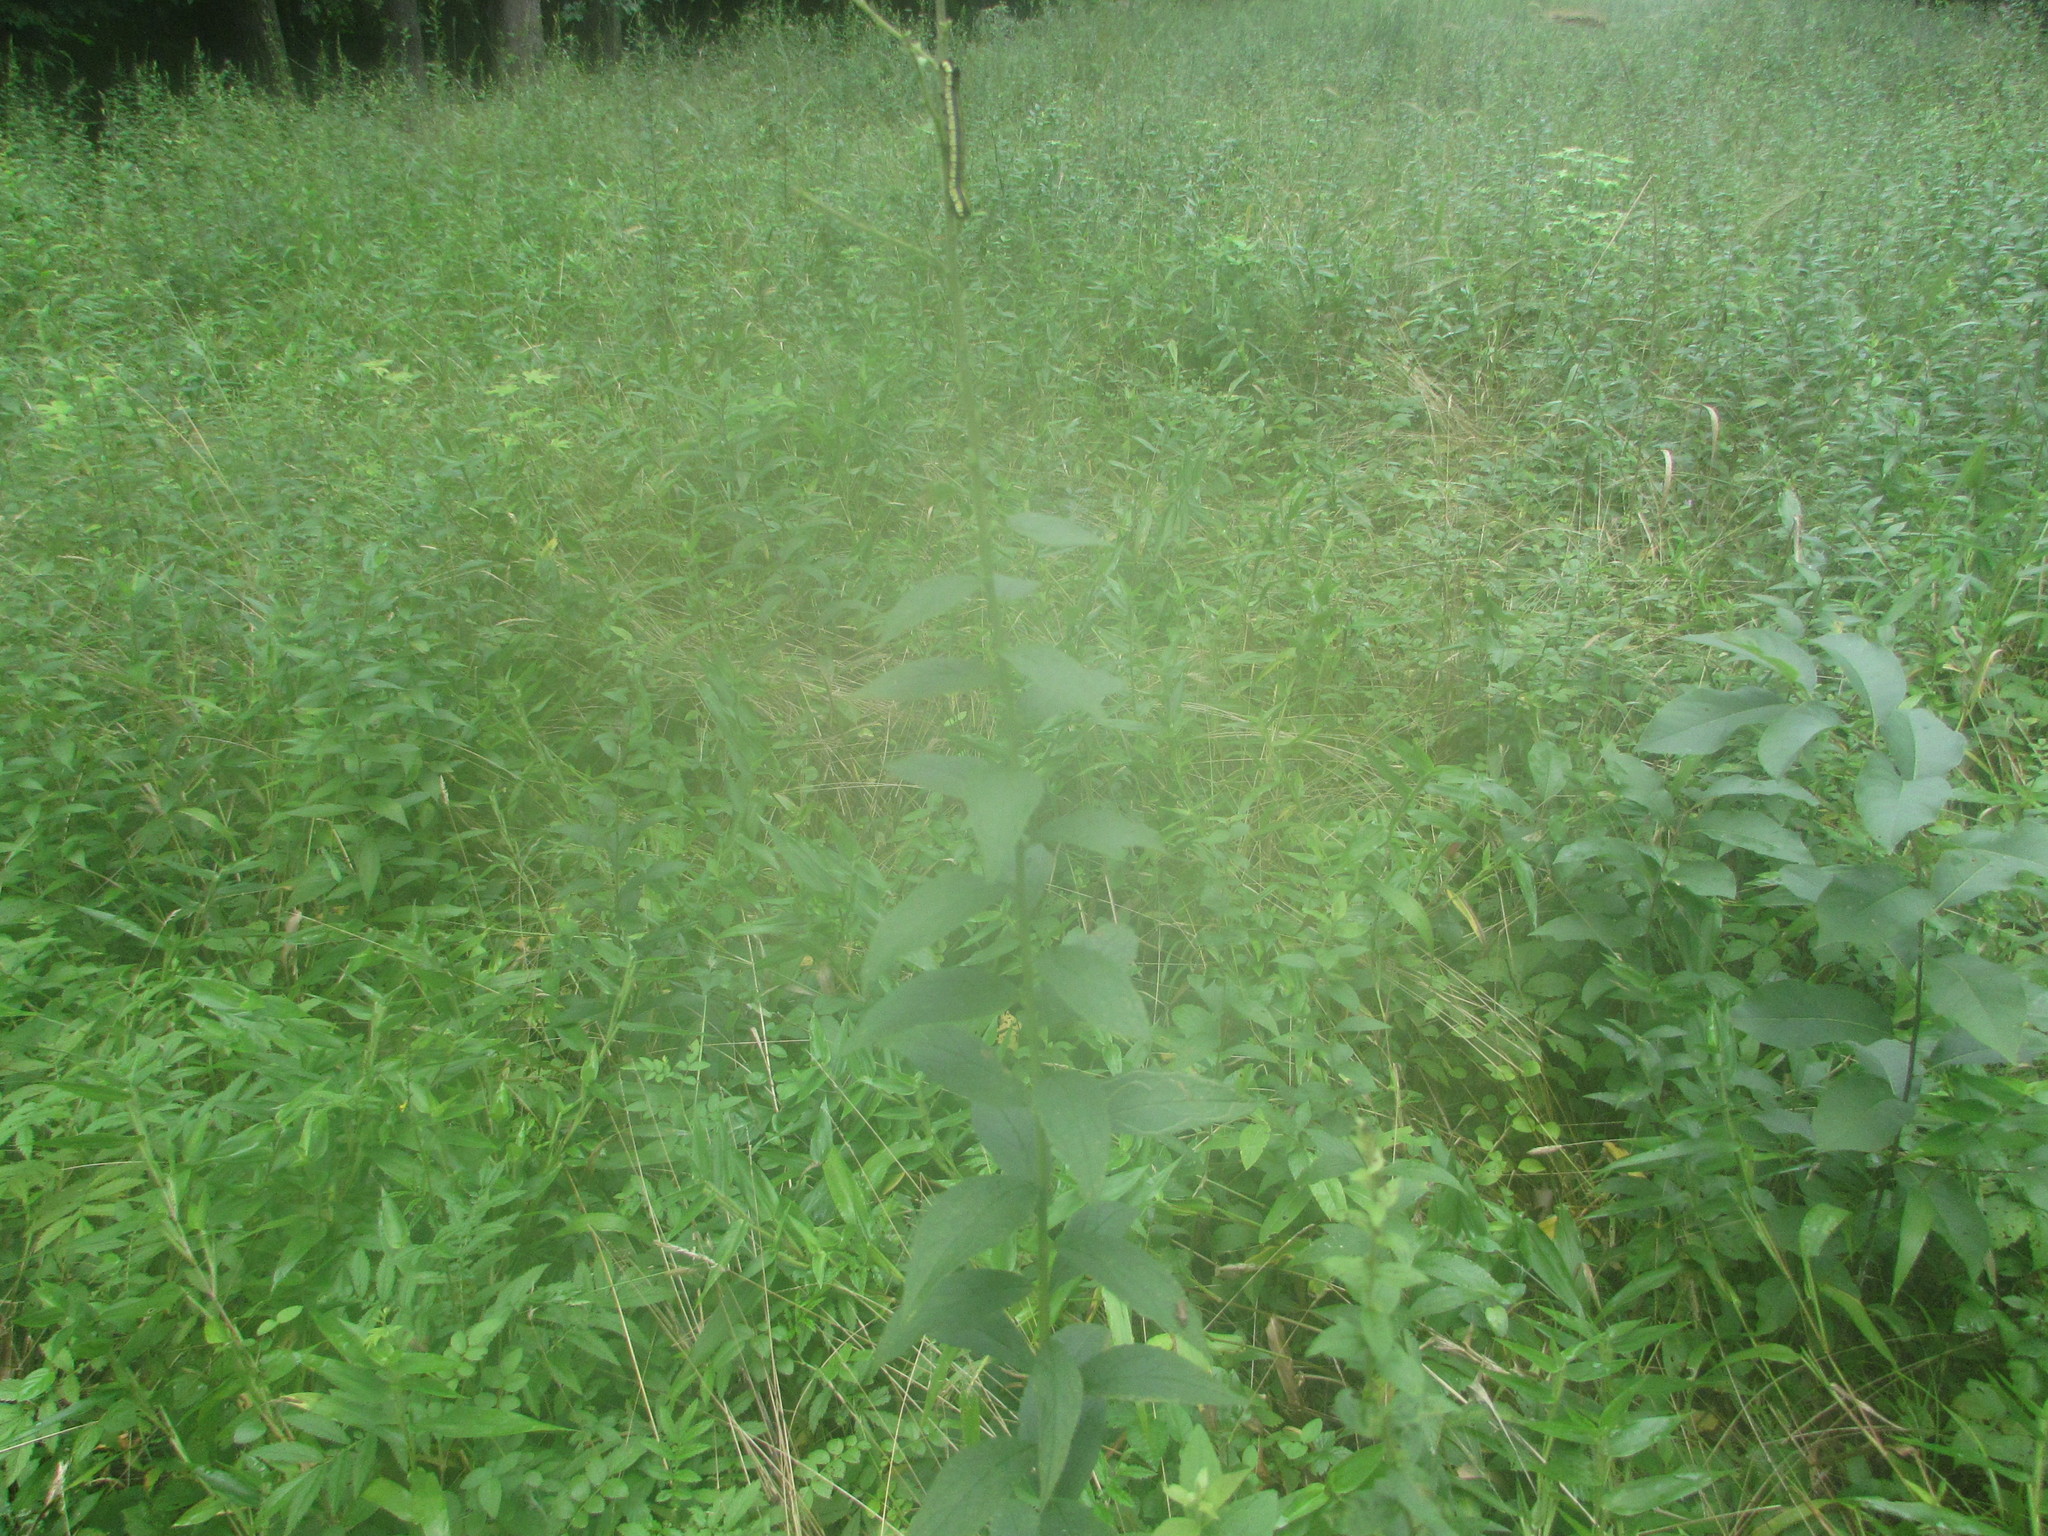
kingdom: Plantae
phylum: Tracheophyta
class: Magnoliopsida
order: Asterales
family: Asteraceae
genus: Solidago
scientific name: Solidago rugosa
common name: Rough-stemmed goldenrod
